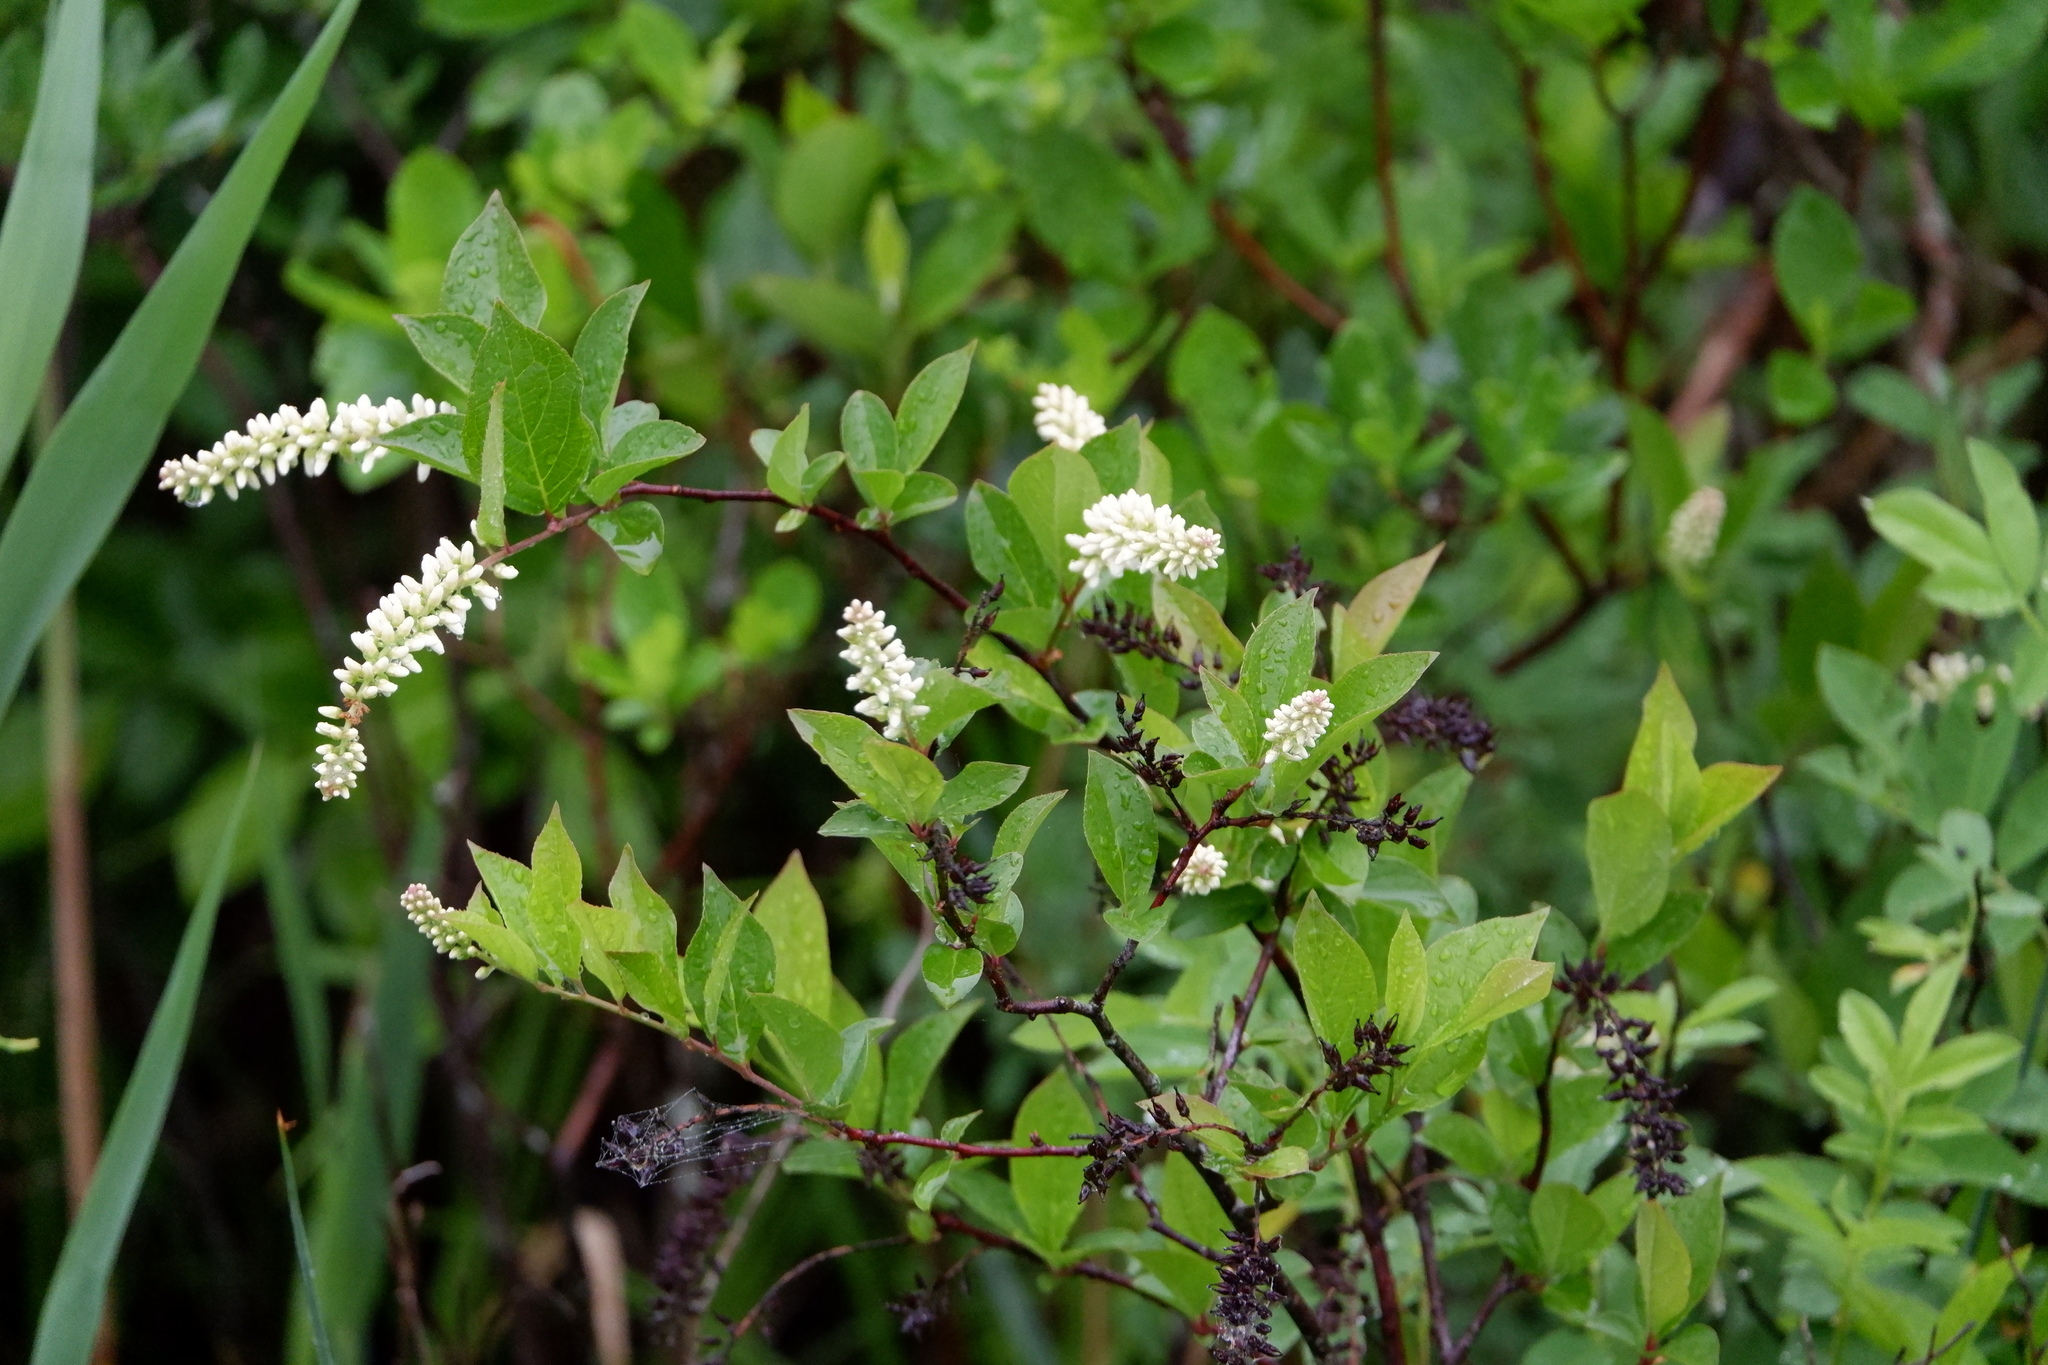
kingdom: Plantae
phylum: Tracheophyta
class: Magnoliopsida
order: Saxifragales
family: Iteaceae
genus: Itea
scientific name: Itea virginica
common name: Sweetspire
